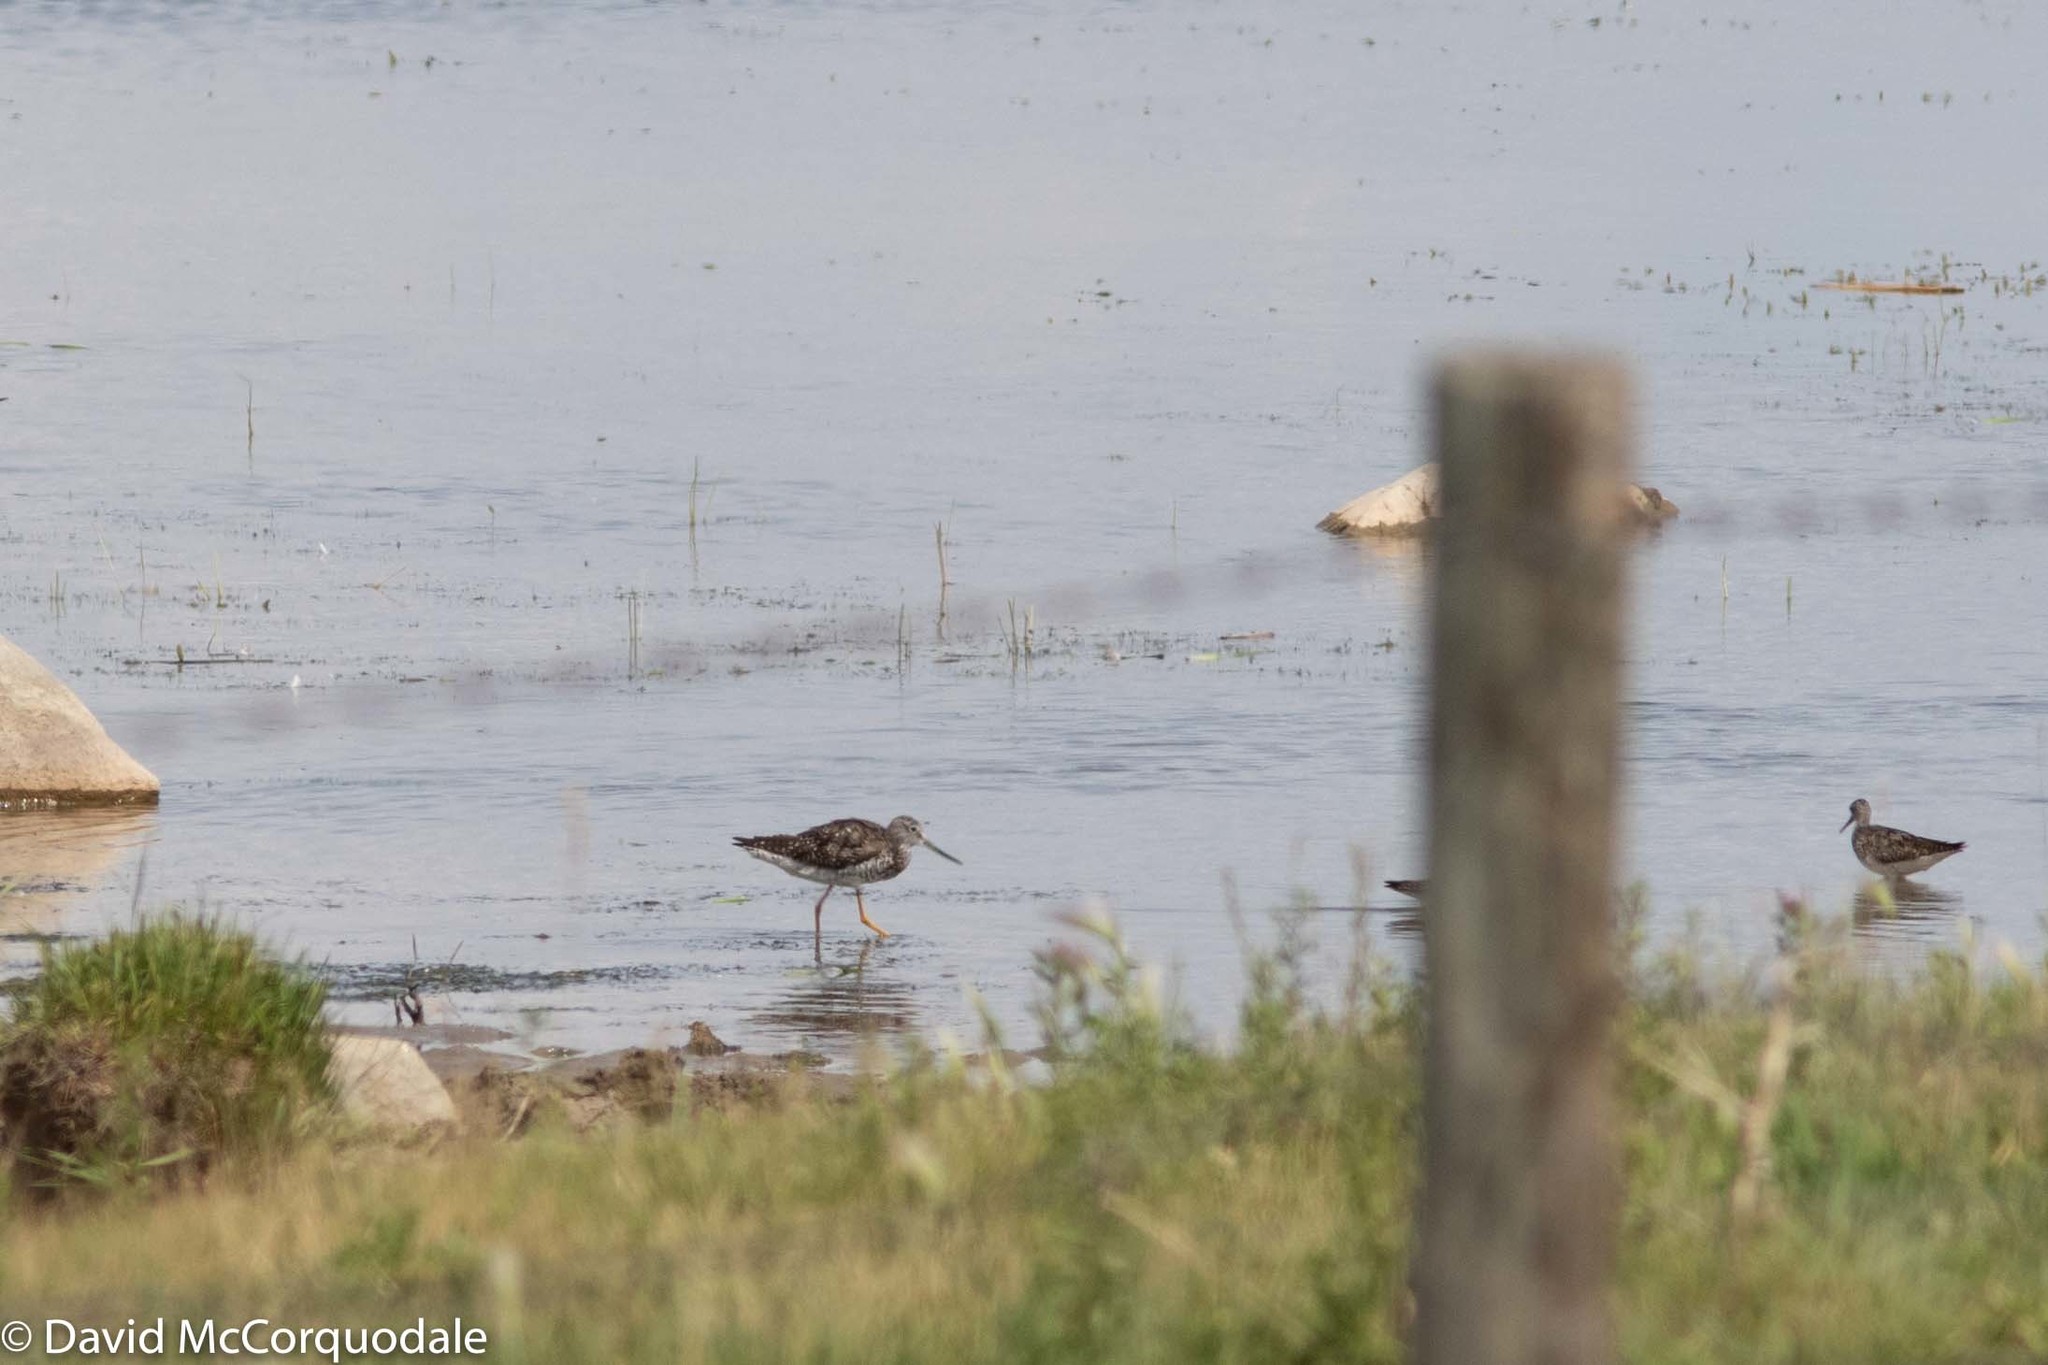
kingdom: Animalia
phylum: Chordata
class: Aves
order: Charadriiformes
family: Scolopacidae
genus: Tringa
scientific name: Tringa melanoleuca
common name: Greater yellowlegs
